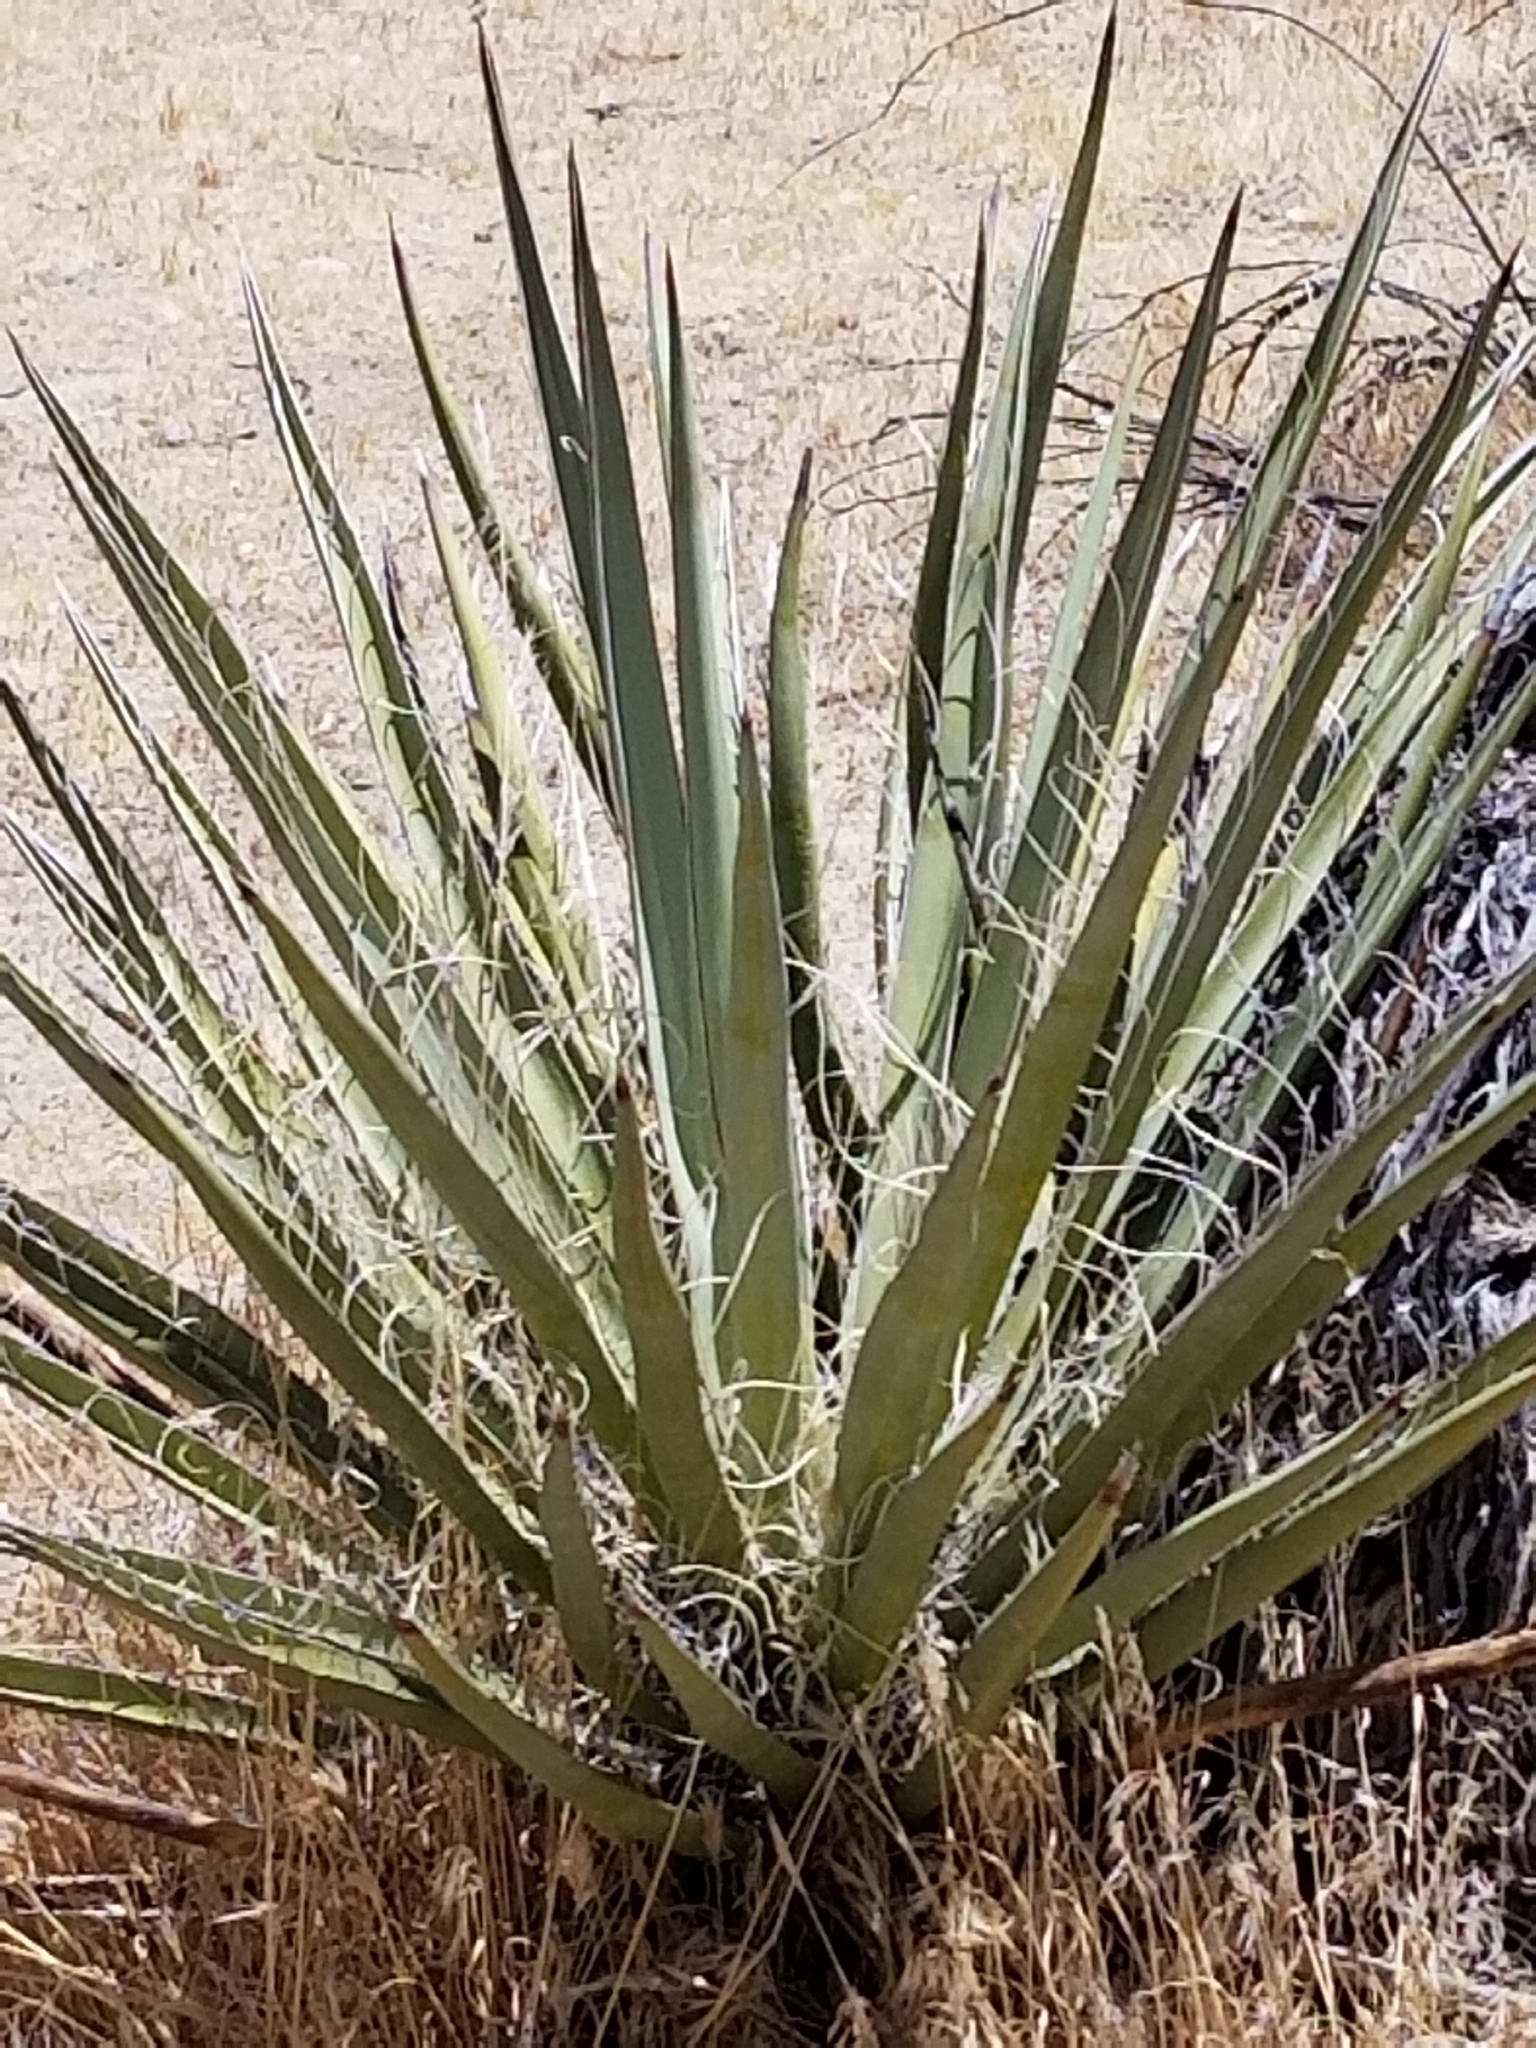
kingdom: Plantae
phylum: Tracheophyta
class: Liliopsida
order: Asparagales
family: Asparagaceae
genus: Yucca
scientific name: Yucca schidigera
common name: Mojave yucca
